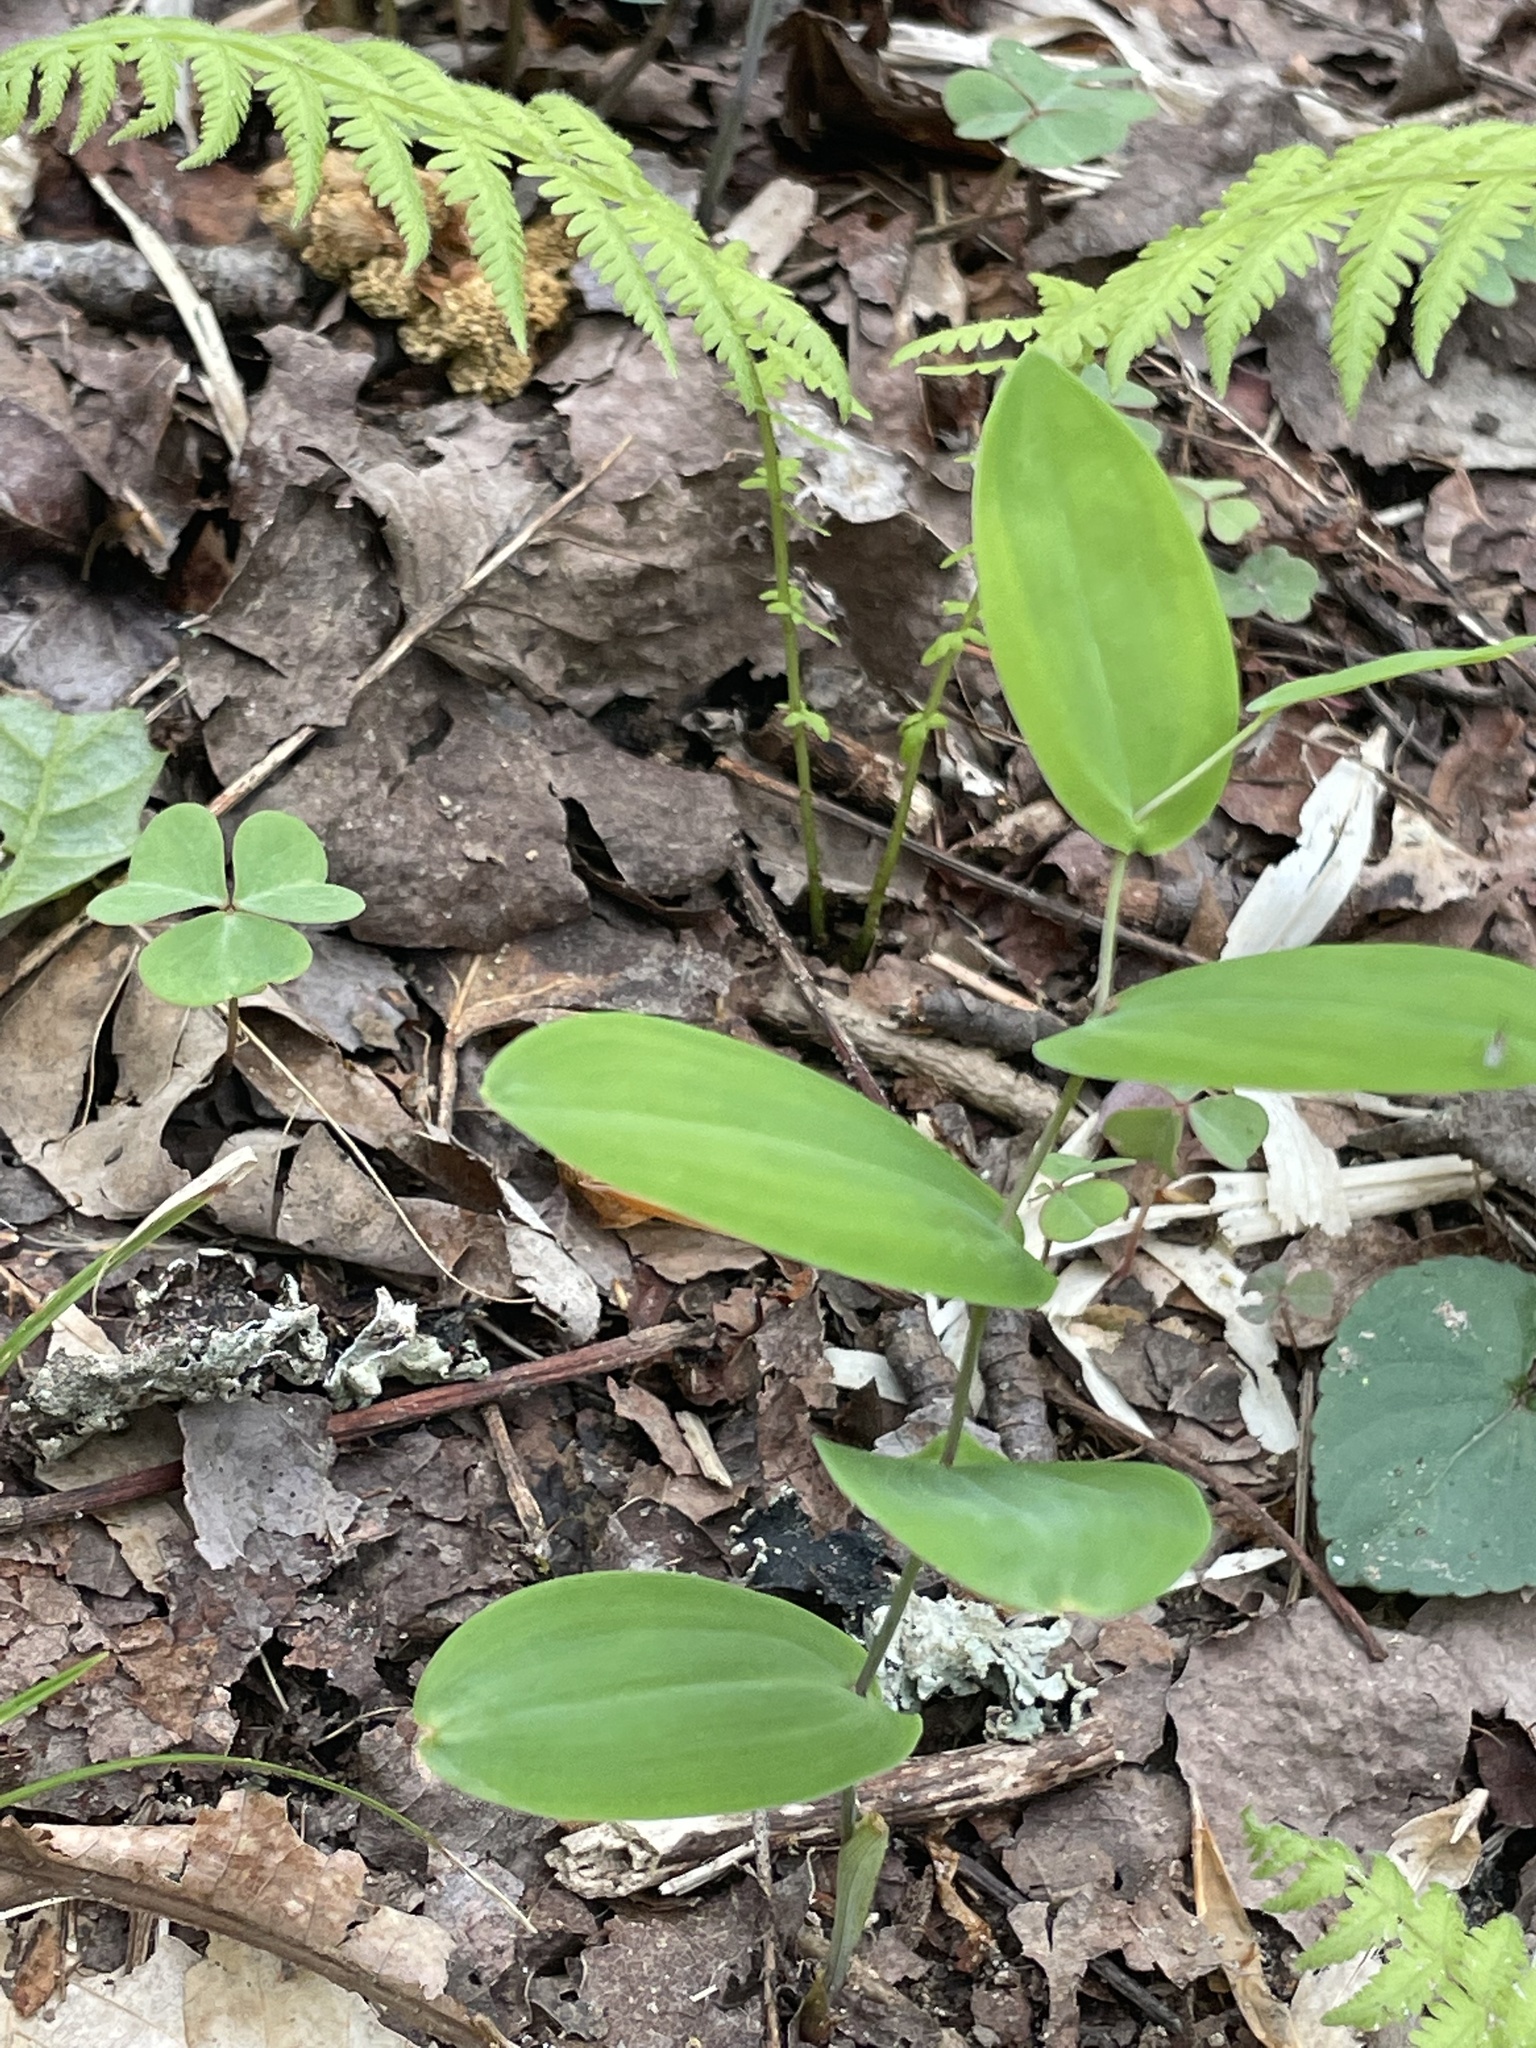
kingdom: Plantae
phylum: Tracheophyta
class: Liliopsida
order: Liliales
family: Colchicaceae
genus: Uvularia
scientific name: Uvularia perfoliata
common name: Perfoliate bellwort
